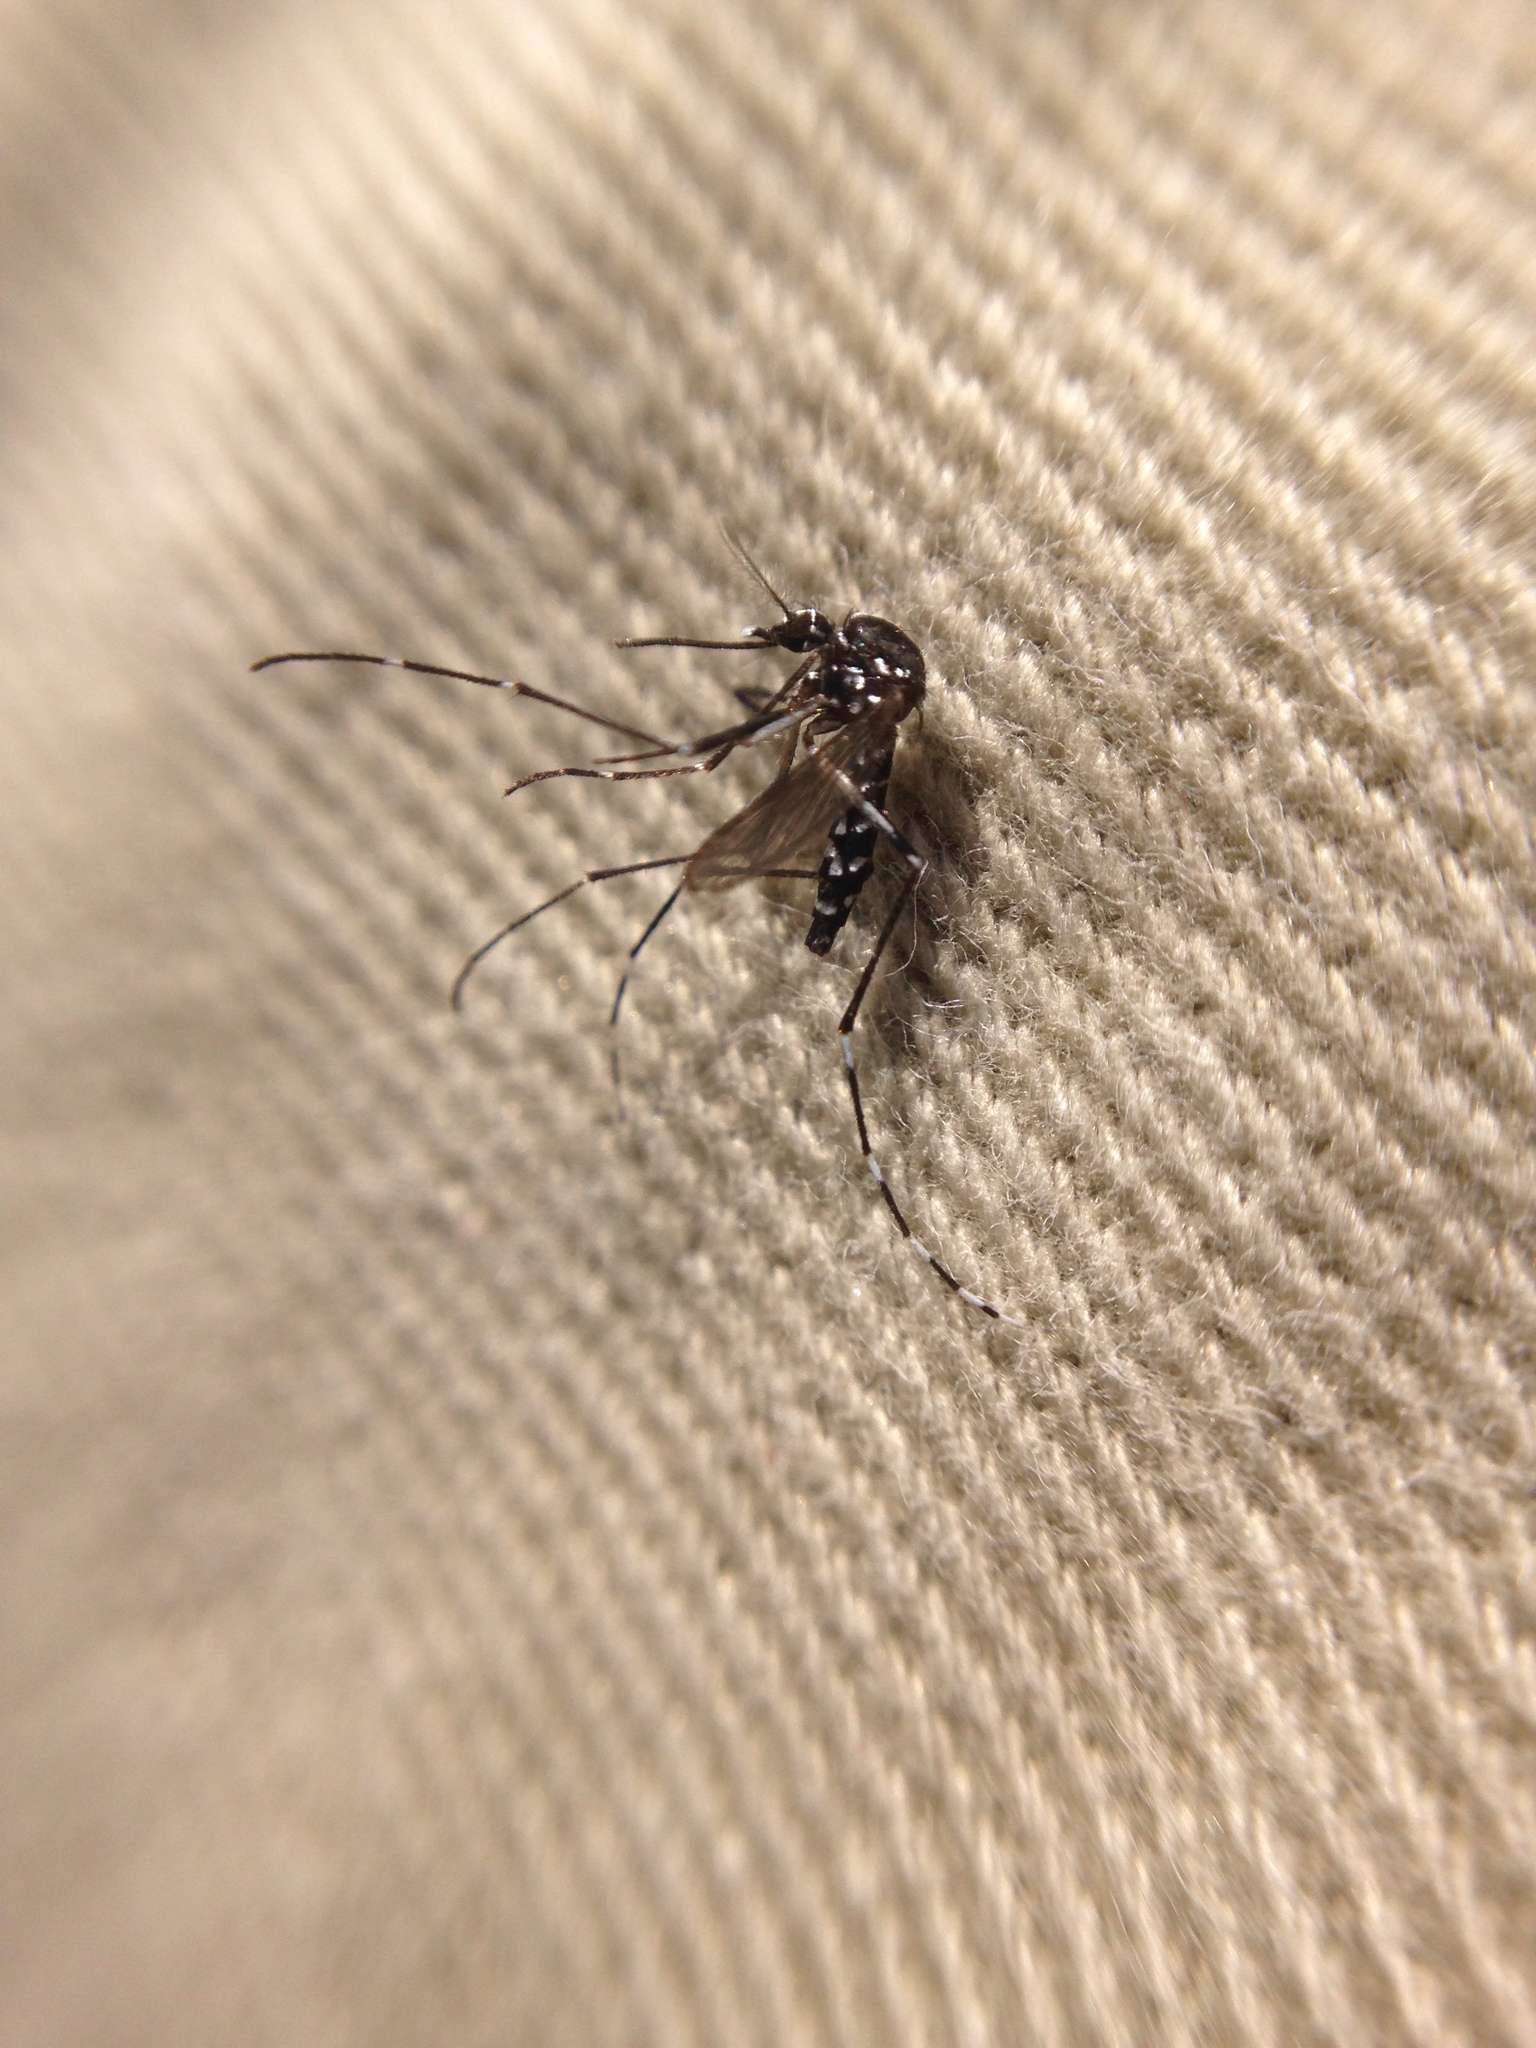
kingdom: Animalia
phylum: Arthropoda
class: Insecta
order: Diptera
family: Culicidae
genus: Aedes
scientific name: Aedes albopictus
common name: Tiger mosquito
